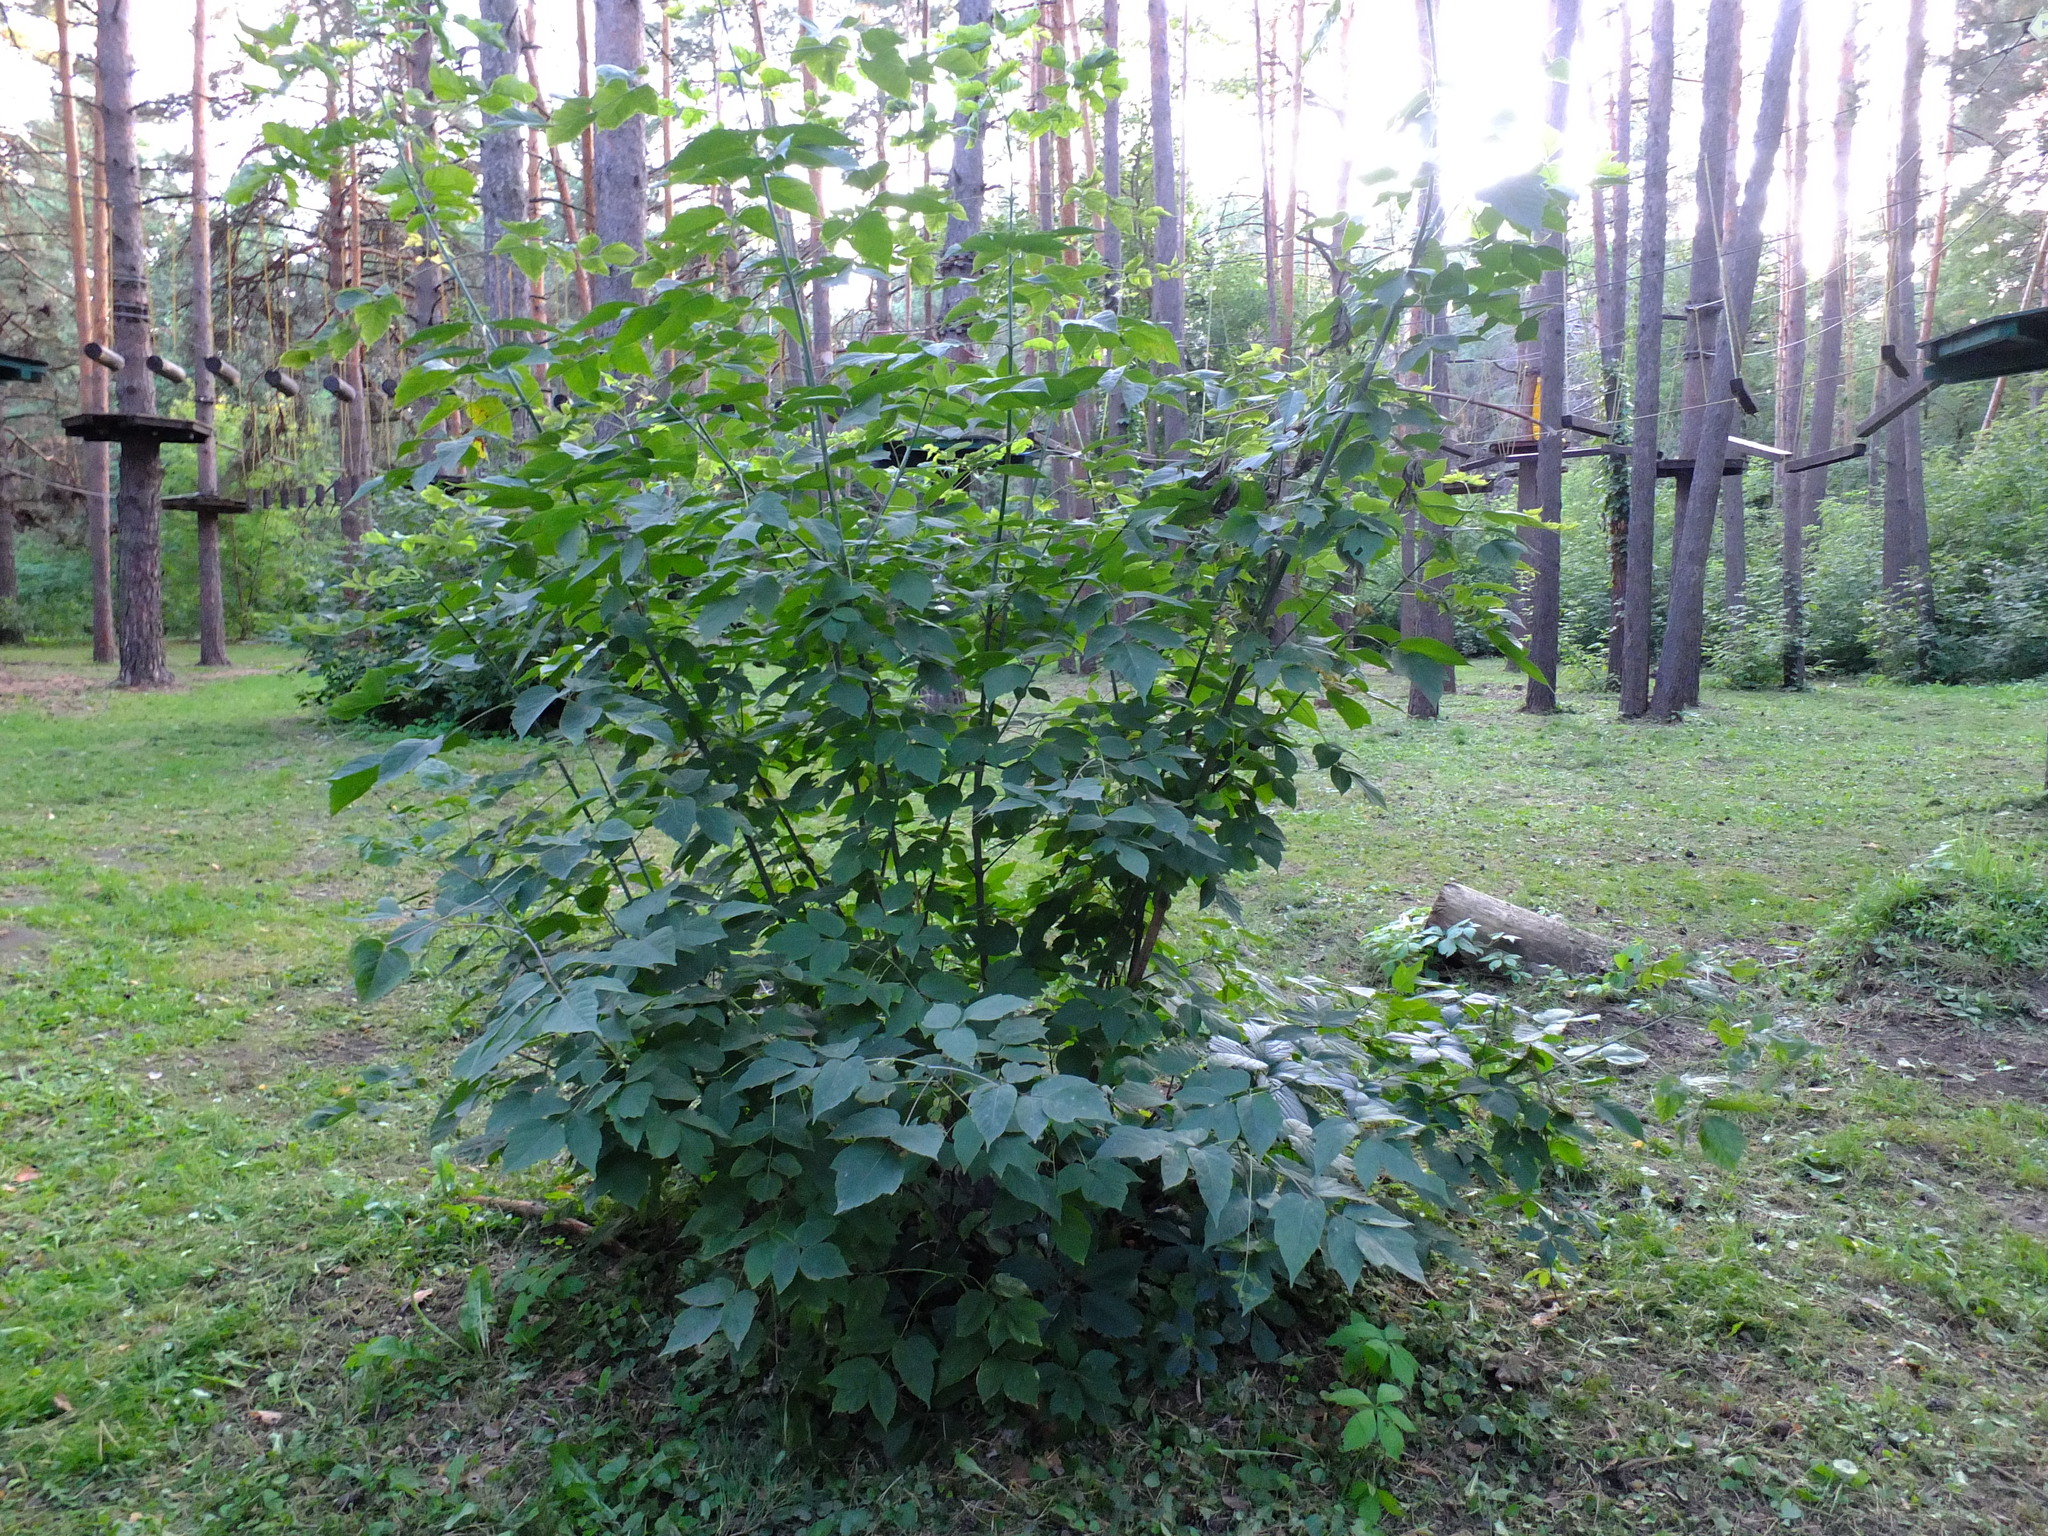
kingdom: Plantae
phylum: Tracheophyta
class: Magnoliopsida
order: Sapindales
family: Sapindaceae
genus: Acer
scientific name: Acer negundo
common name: Ashleaf maple
